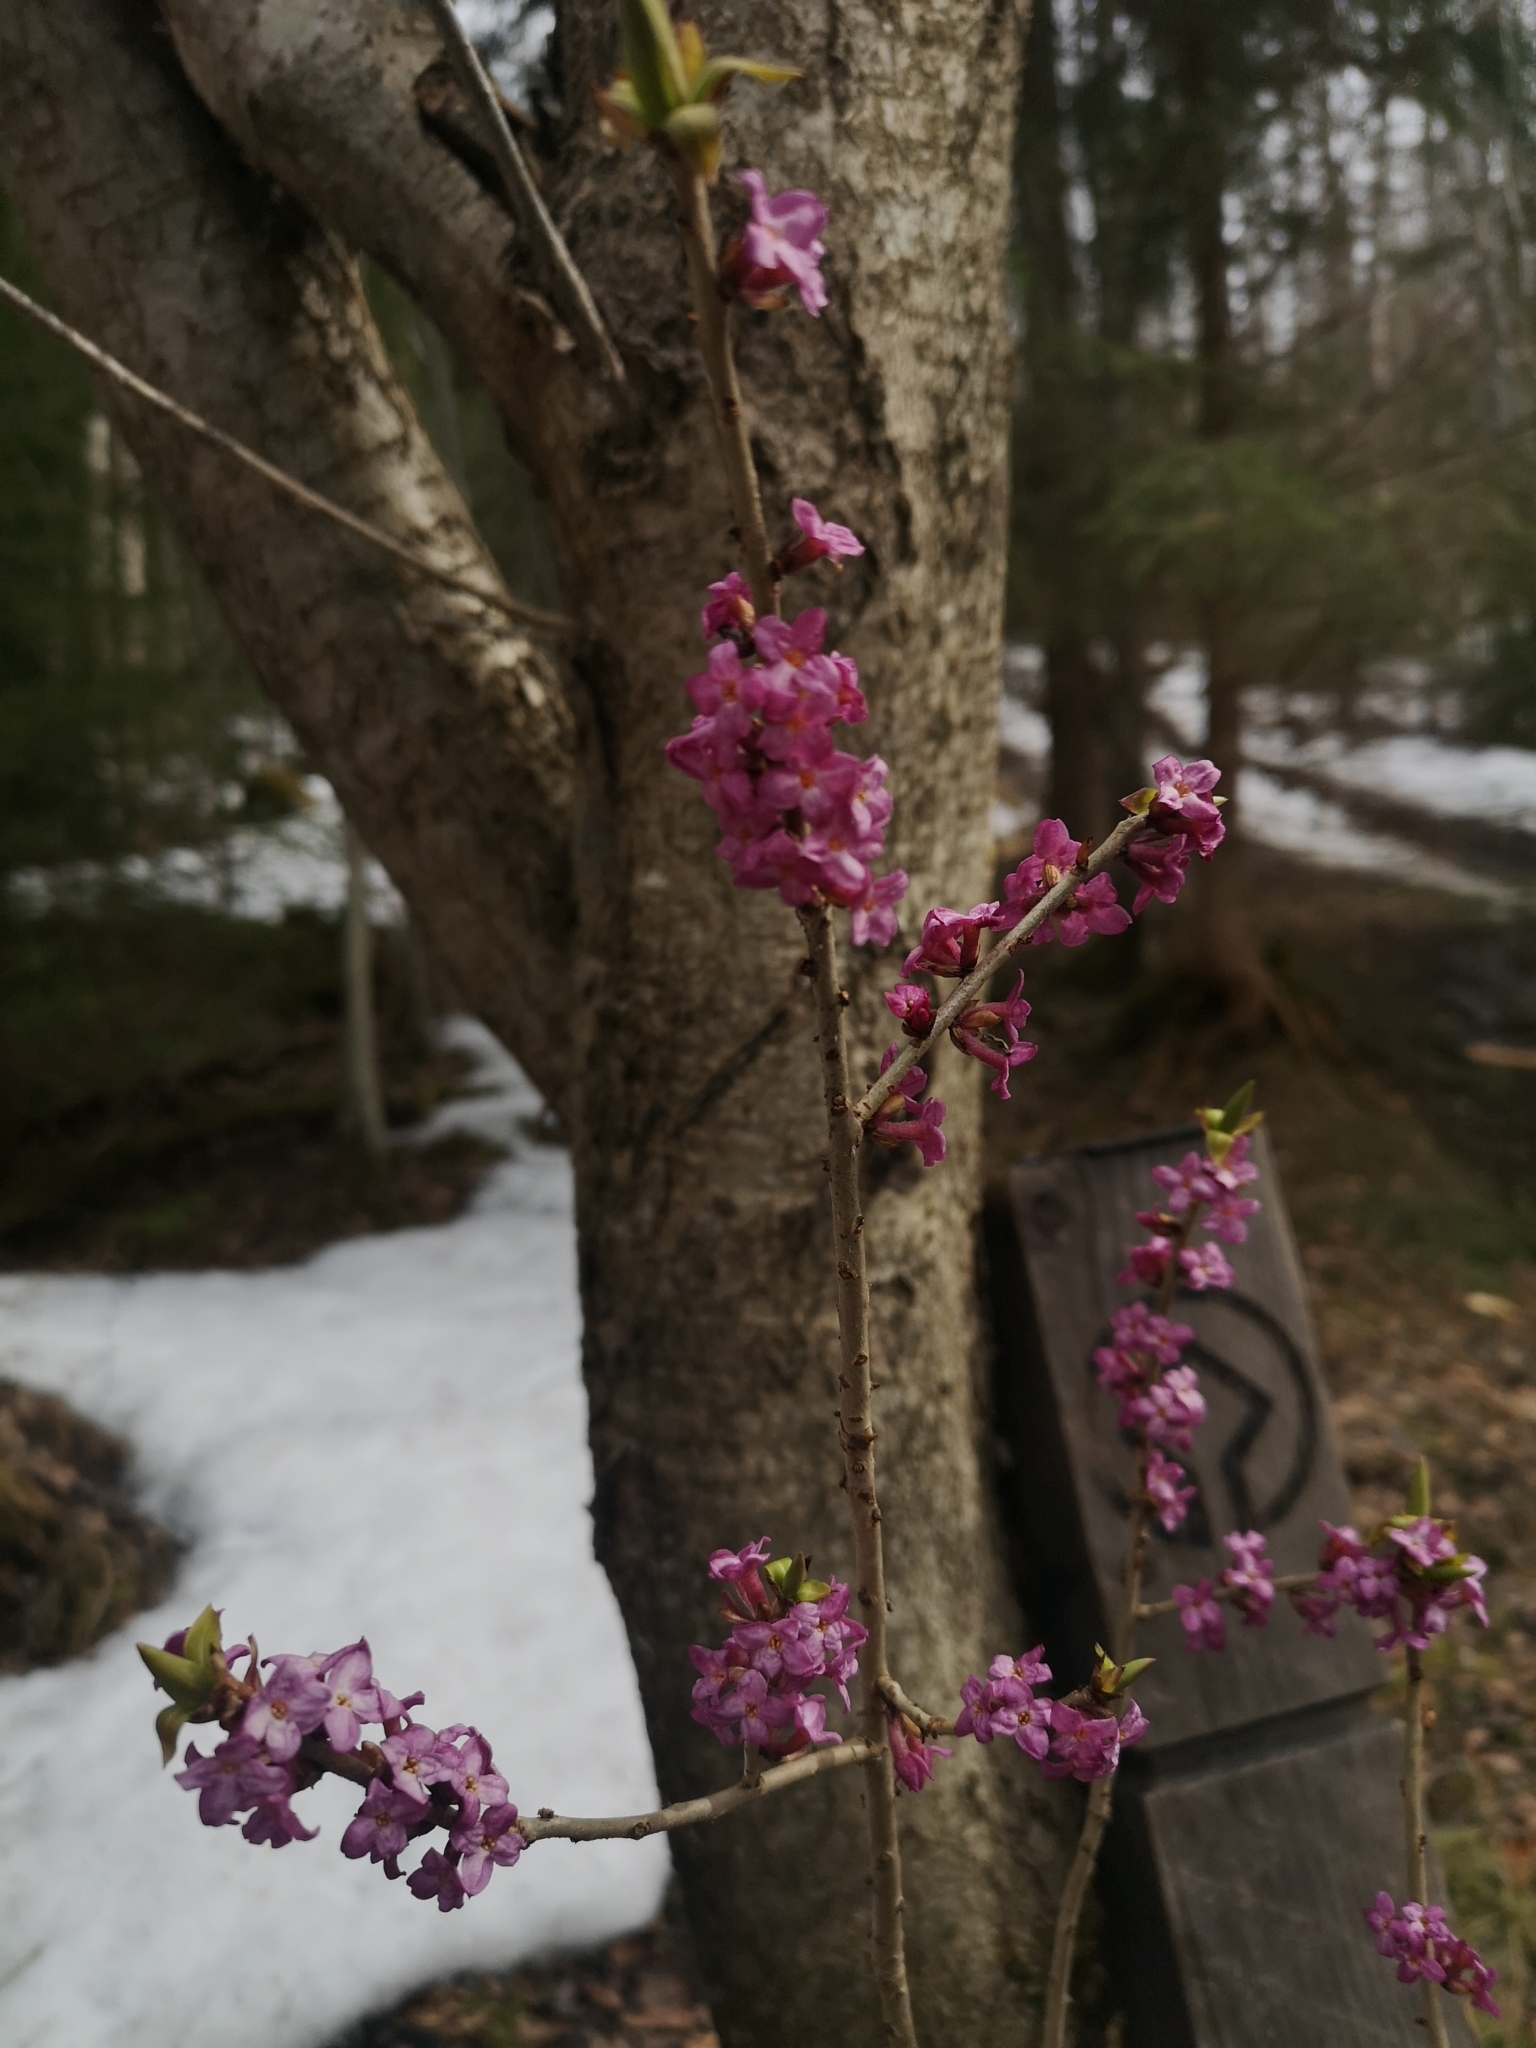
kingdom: Plantae
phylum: Tracheophyta
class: Magnoliopsida
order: Malvales
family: Thymelaeaceae
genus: Daphne
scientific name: Daphne mezereum
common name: Mezereon
